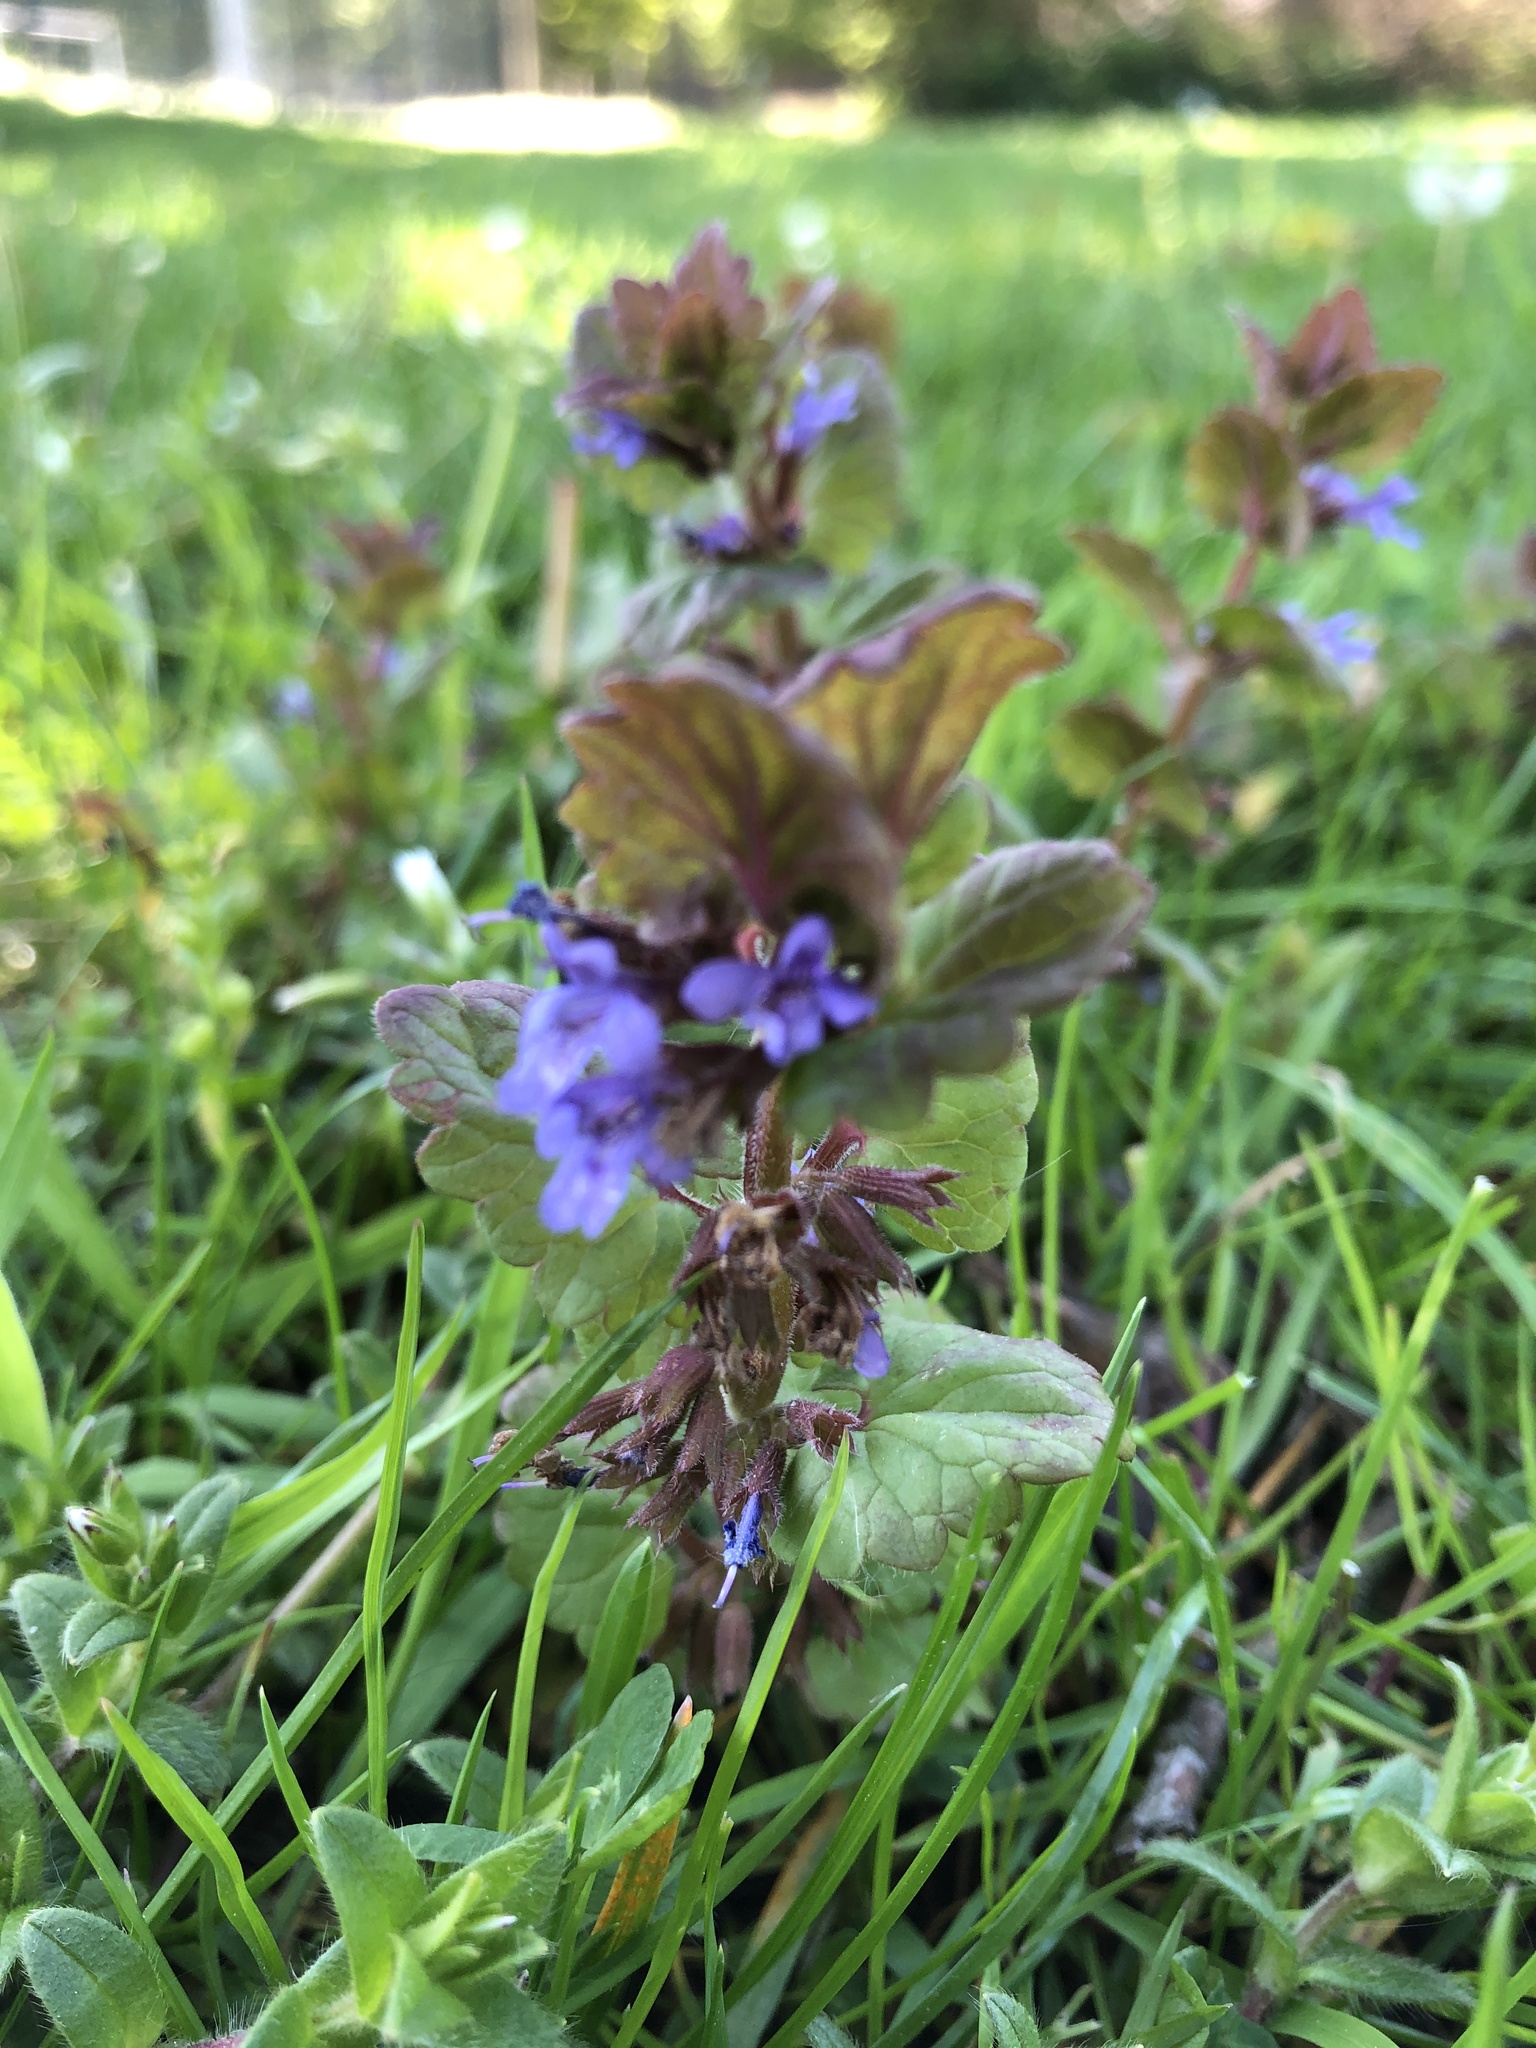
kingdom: Plantae
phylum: Tracheophyta
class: Magnoliopsida
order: Lamiales
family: Lamiaceae
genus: Glechoma
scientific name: Glechoma hederacea
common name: Ground ivy
